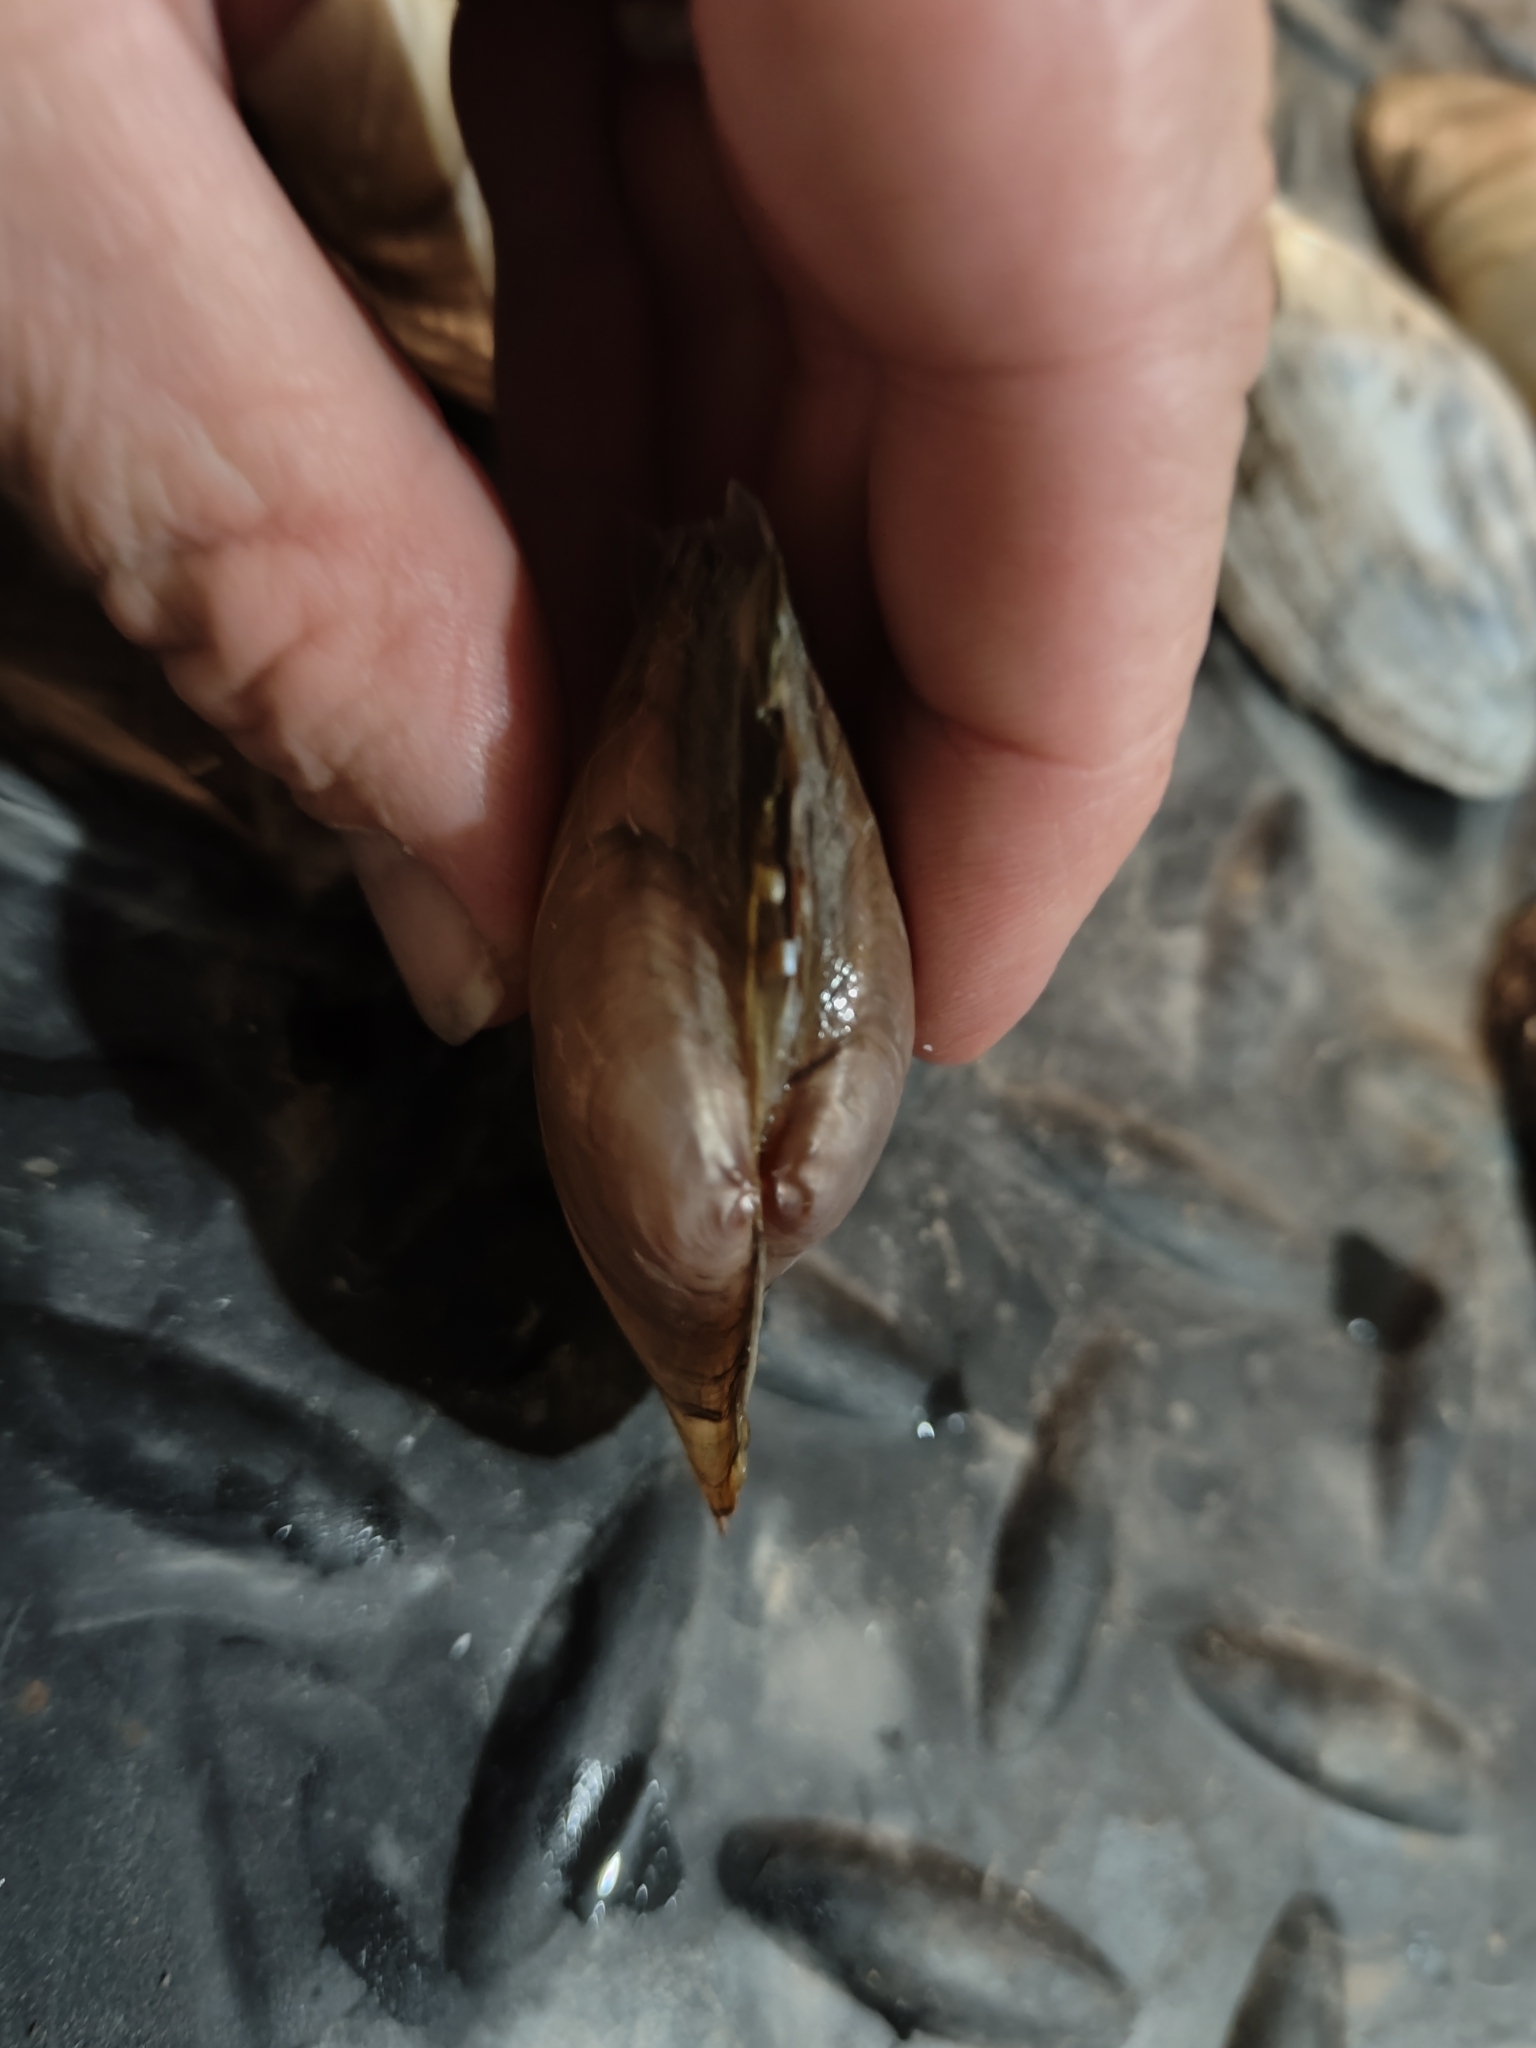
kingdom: Animalia
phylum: Mollusca
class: Bivalvia
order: Unionida
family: Unionidae
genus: Pyganodon
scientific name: Pyganodon grandis
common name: Giant floater
